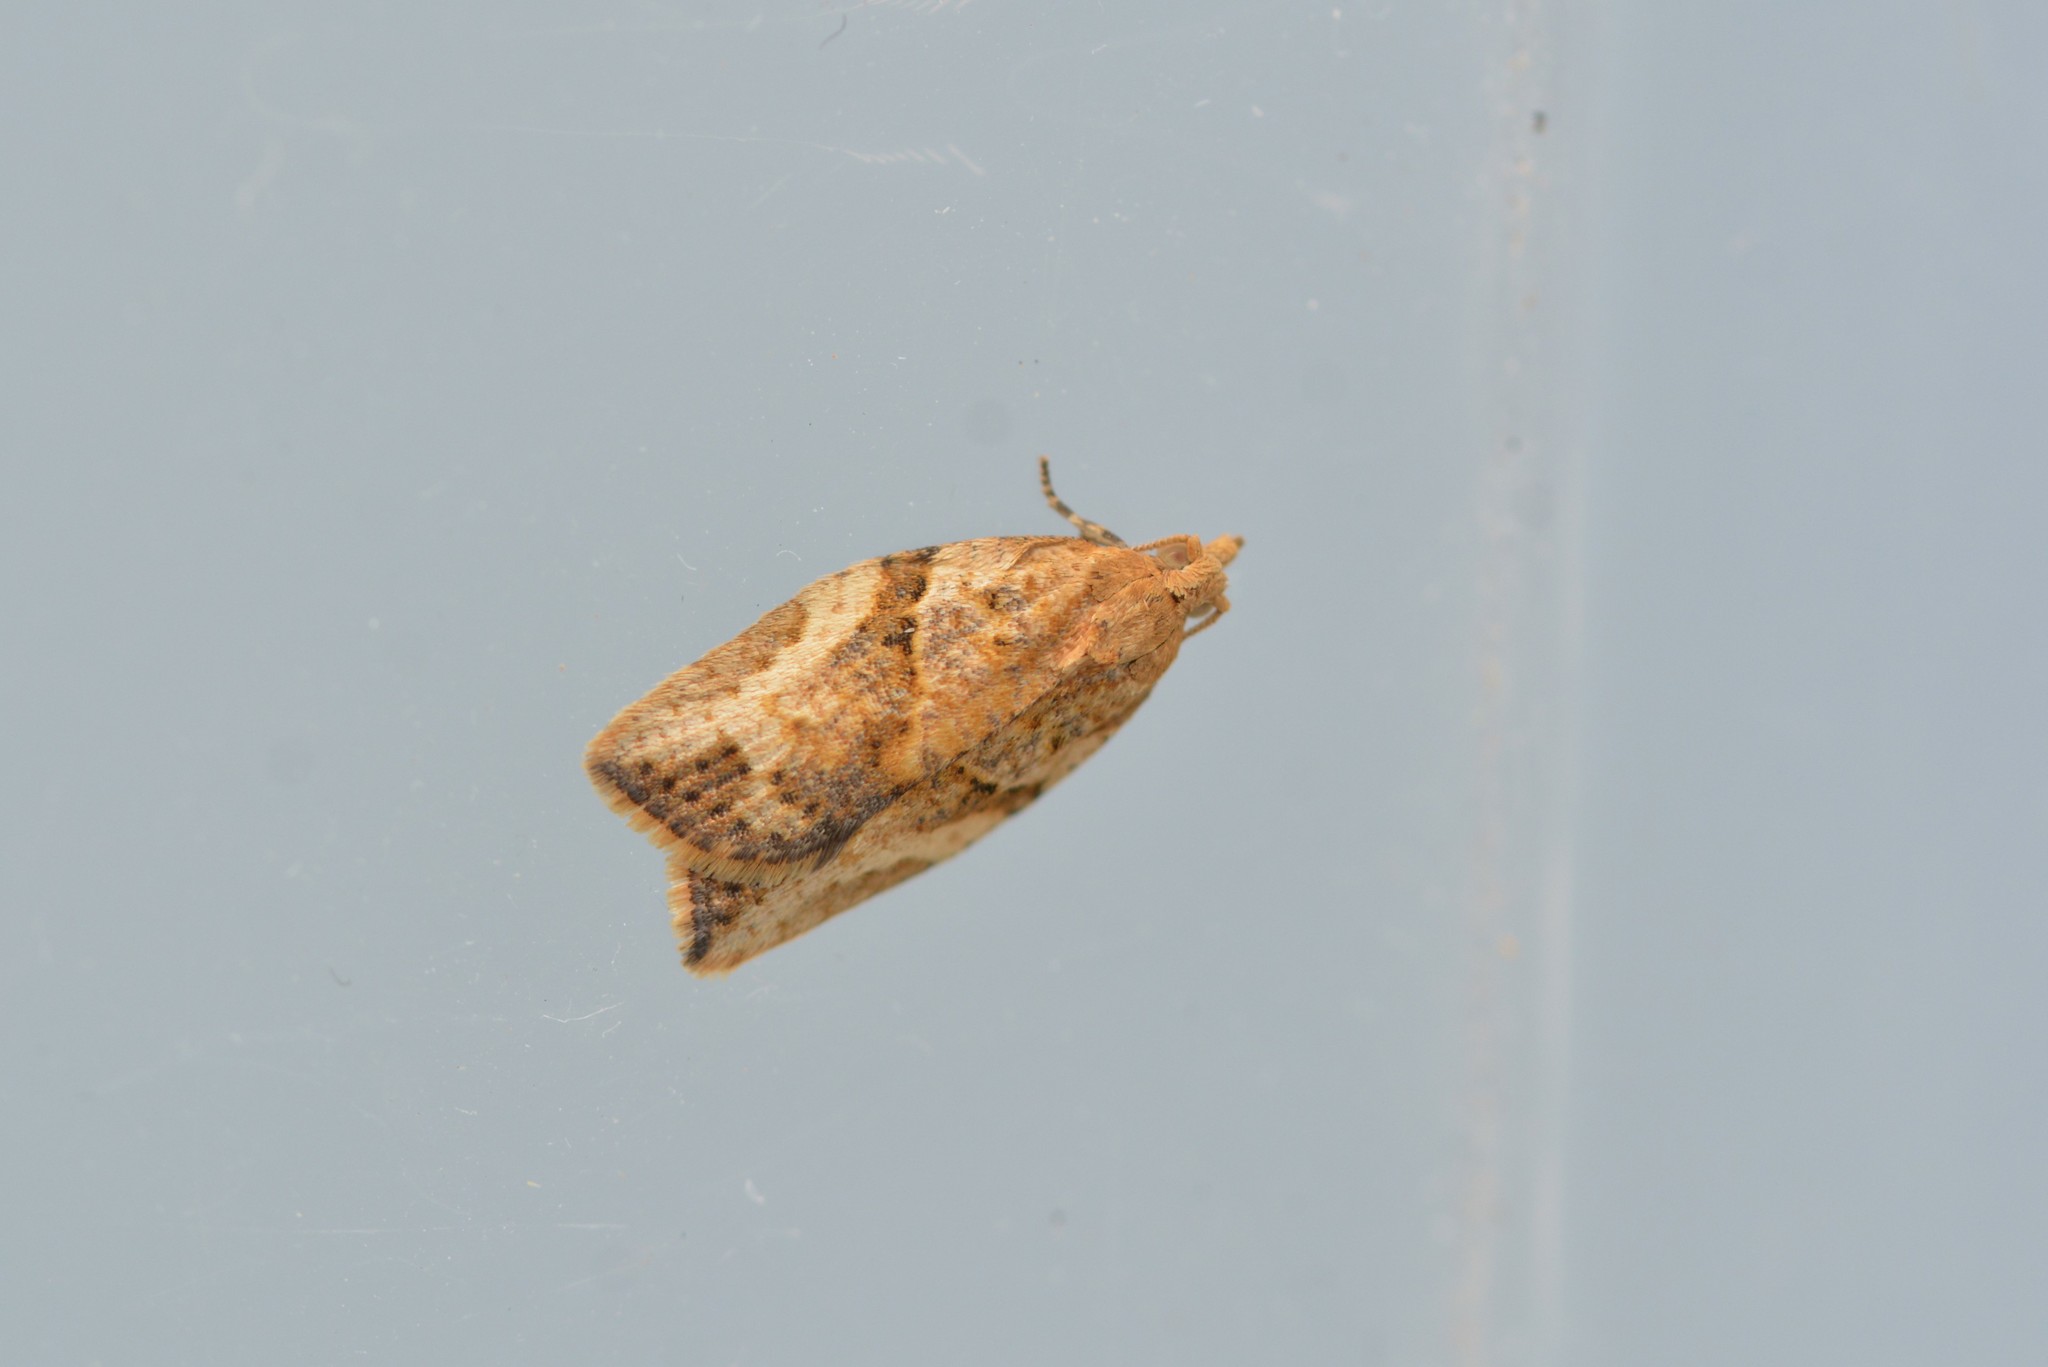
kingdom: Animalia
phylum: Arthropoda
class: Insecta
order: Lepidoptera
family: Tortricidae
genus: Epiphyas
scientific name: Epiphyas postvittana
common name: Light brown apple moth
